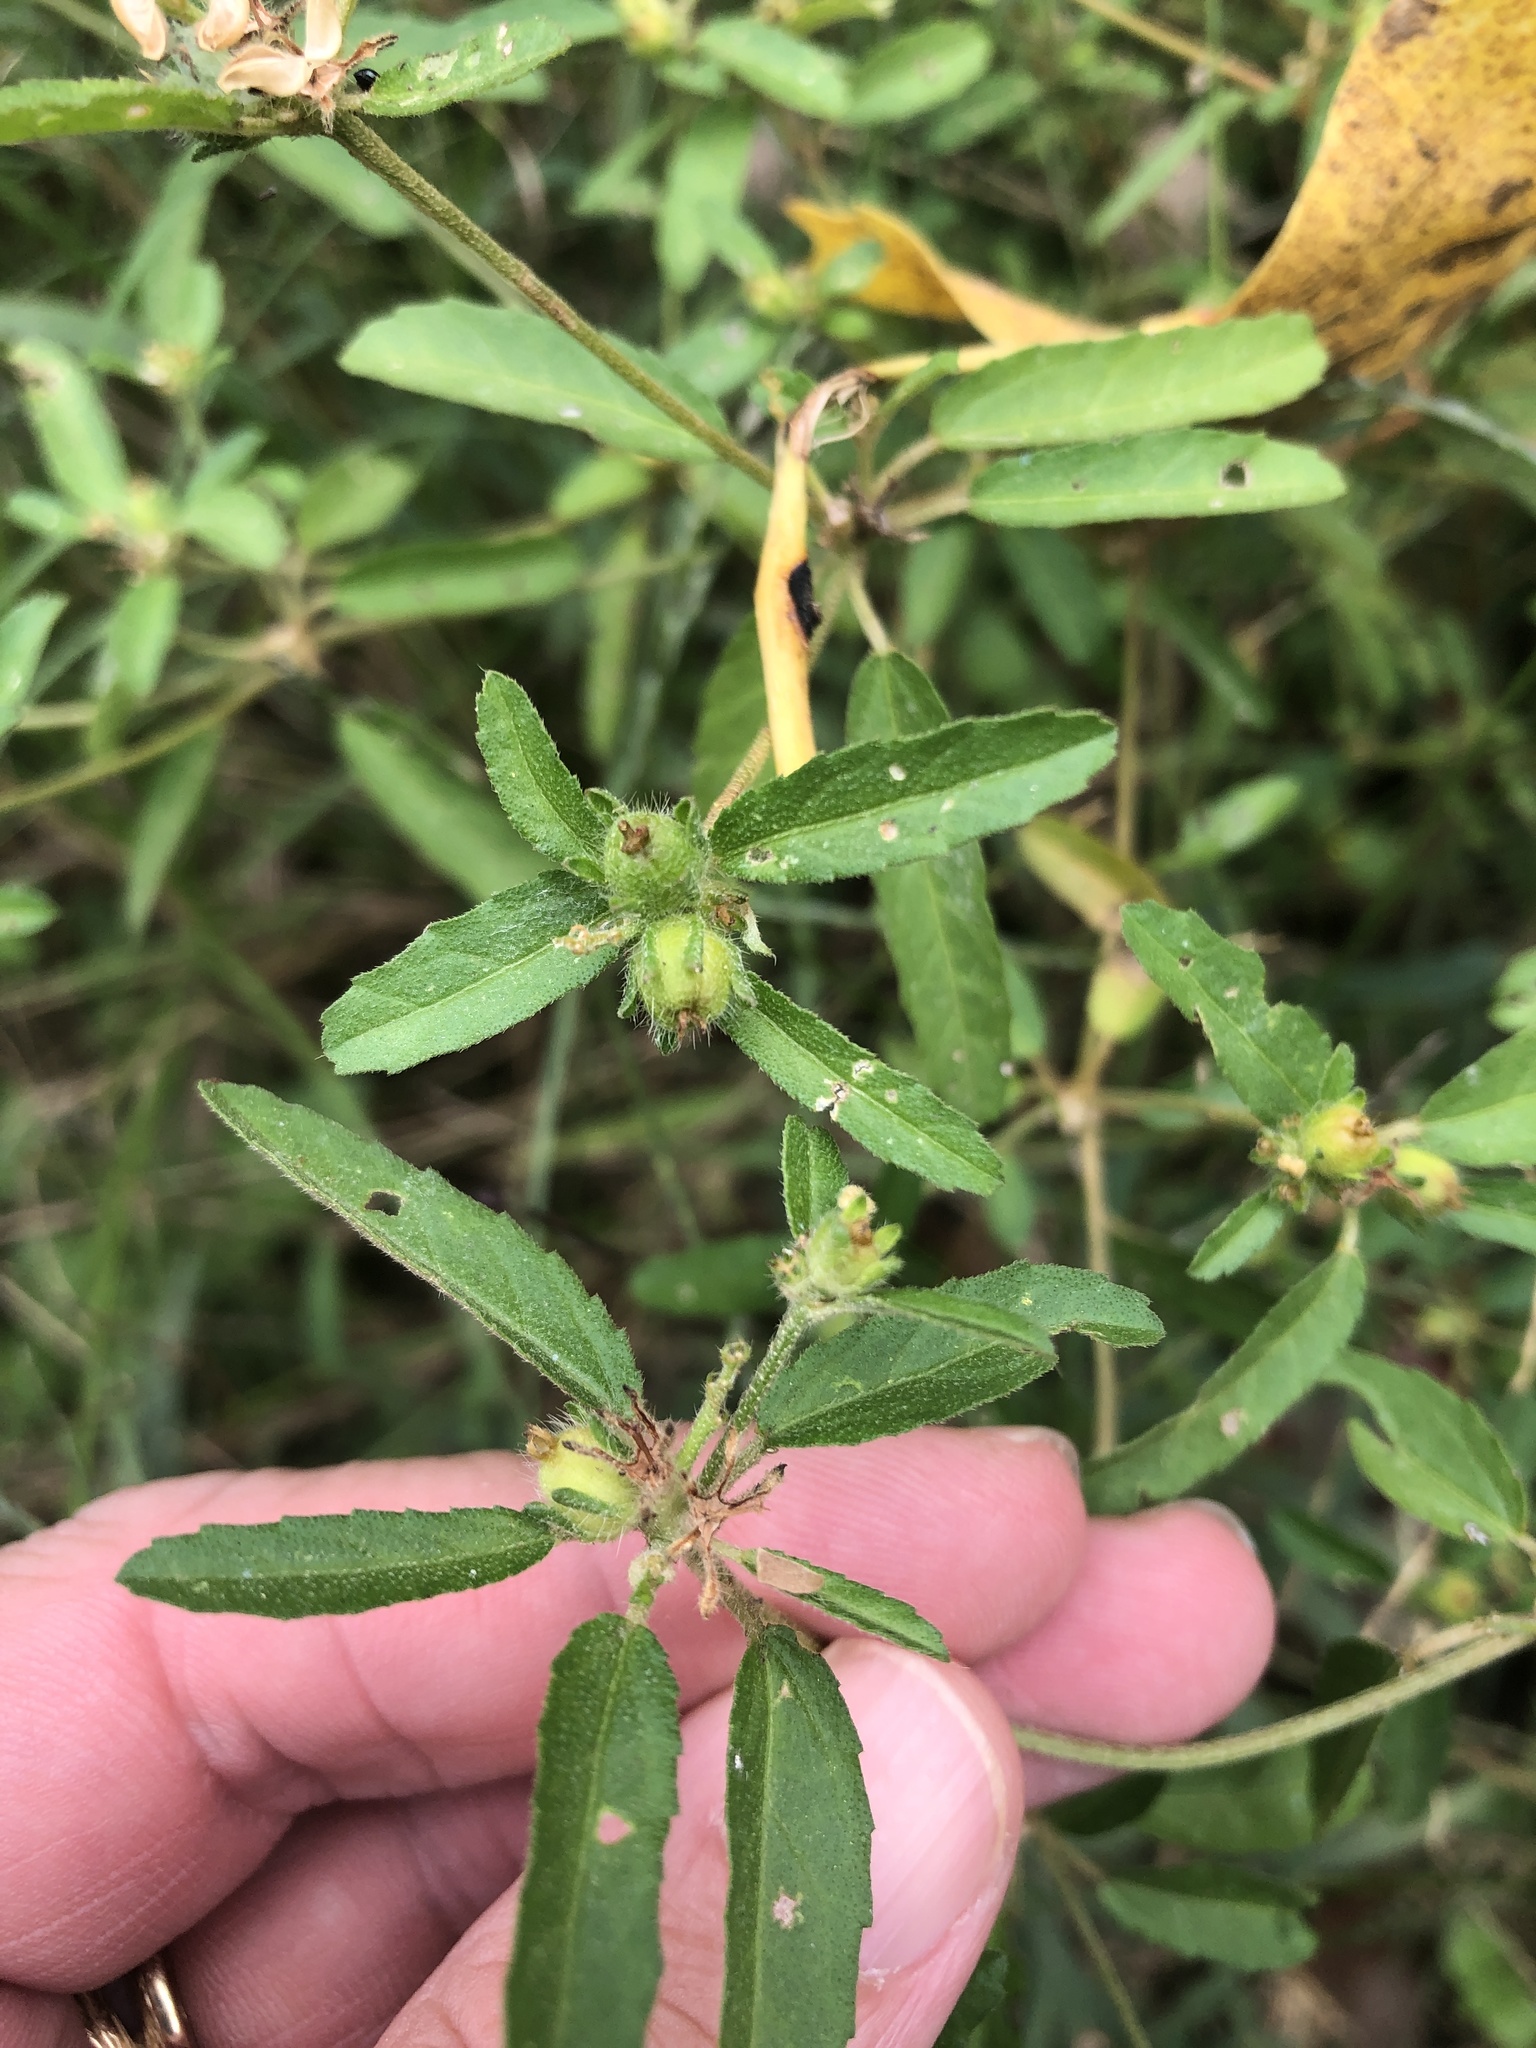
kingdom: Plantae
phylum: Tracheophyta
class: Magnoliopsida
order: Malpighiales
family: Euphorbiaceae
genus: Croton
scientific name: Croton glandulosus
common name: Tropic croton
